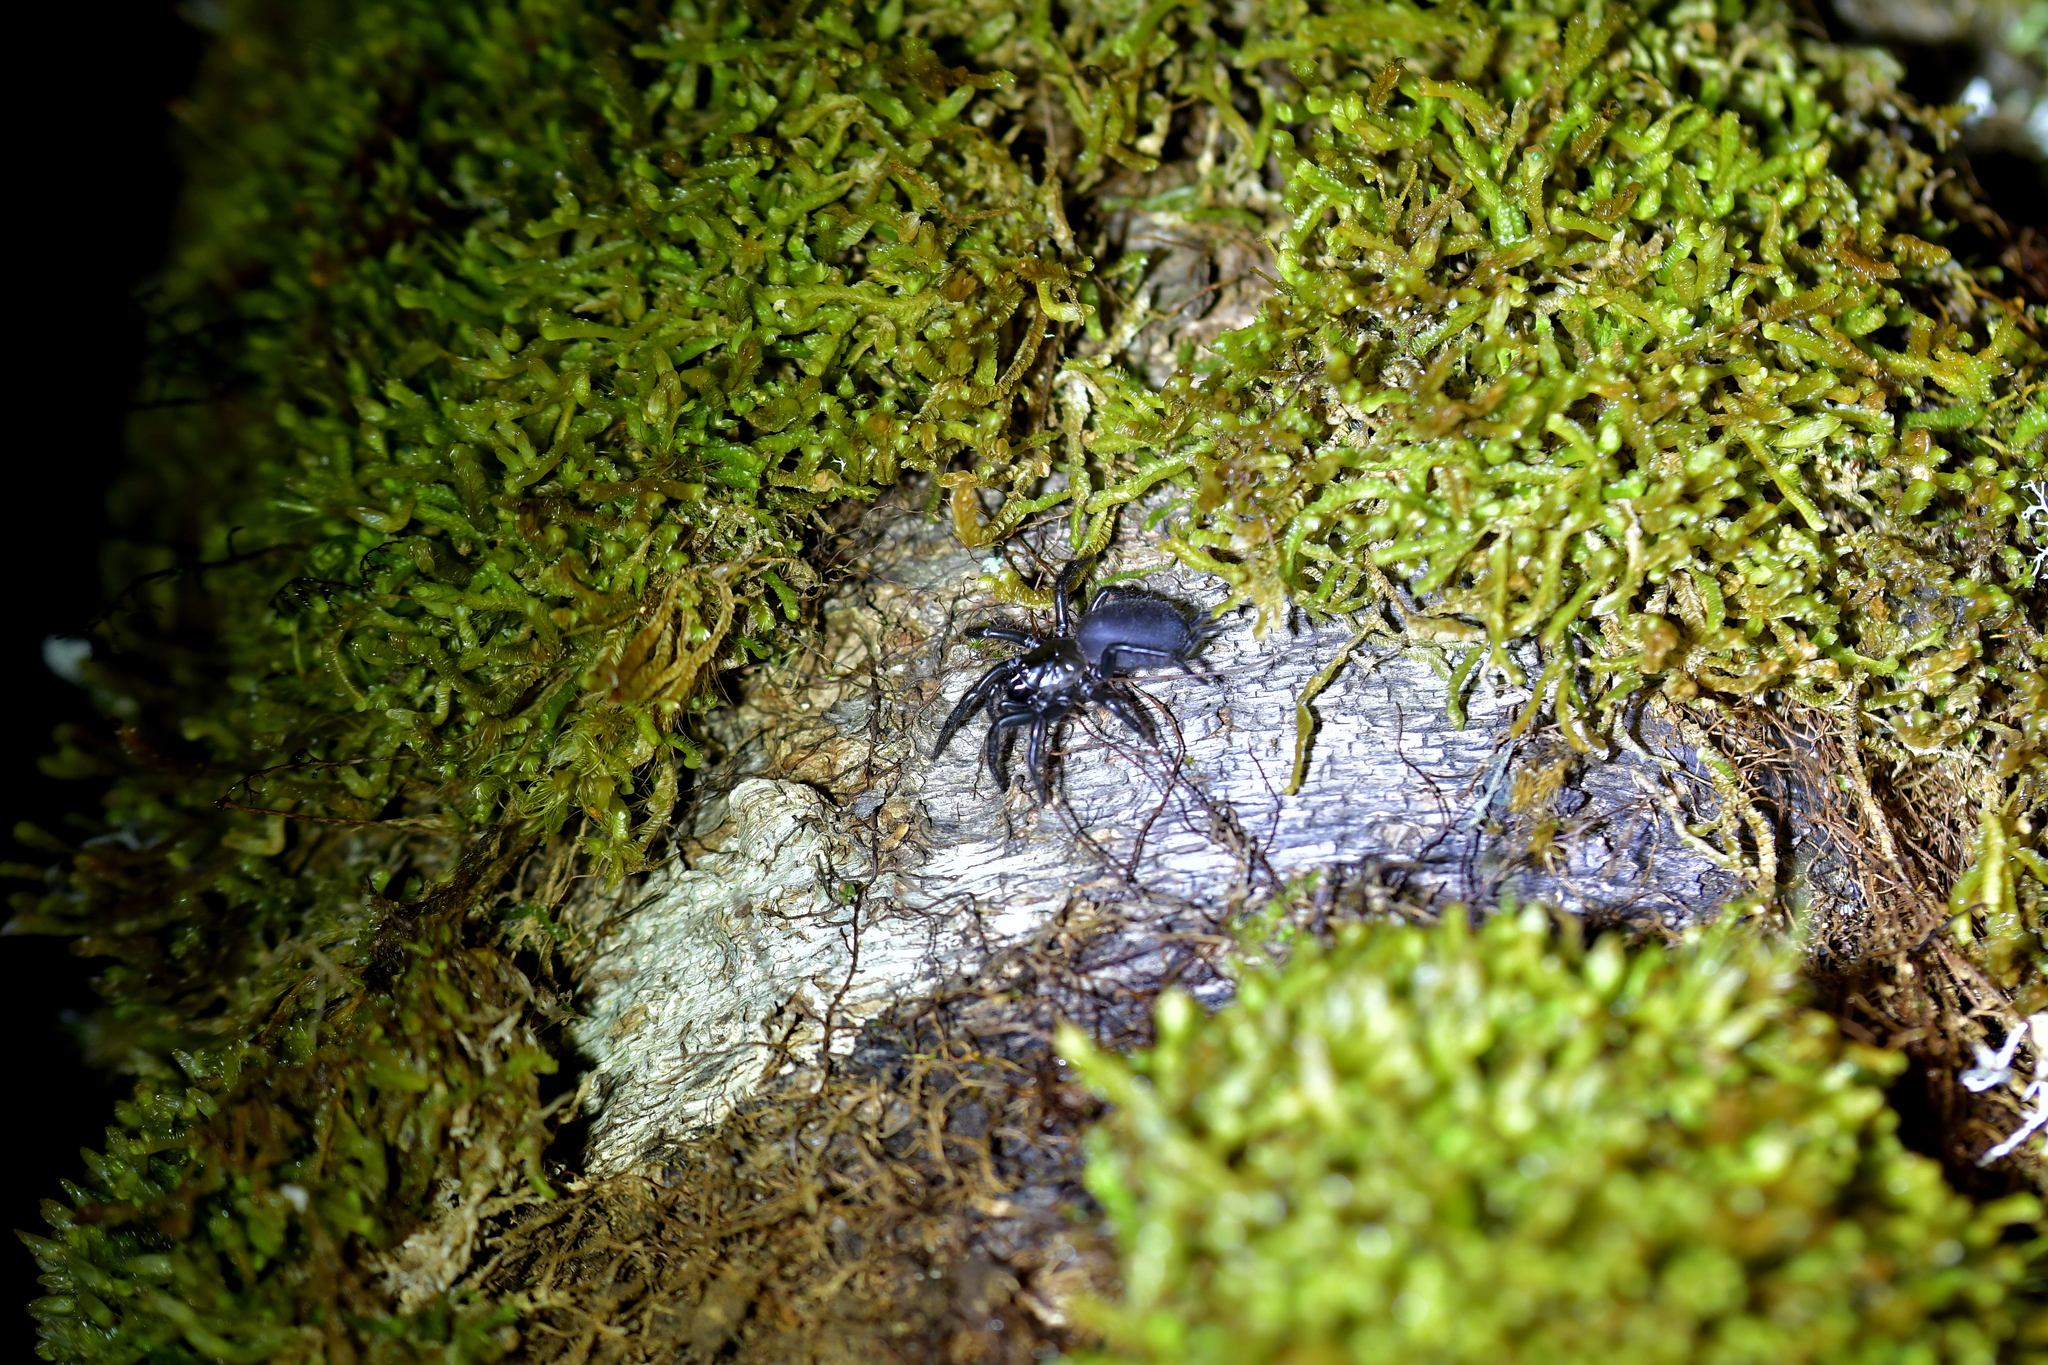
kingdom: Animalia
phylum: Arthropoda
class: Arachnida
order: Araneae
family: Porrhothelidae
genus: Porrhothele
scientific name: Porrhothele antipodiana
